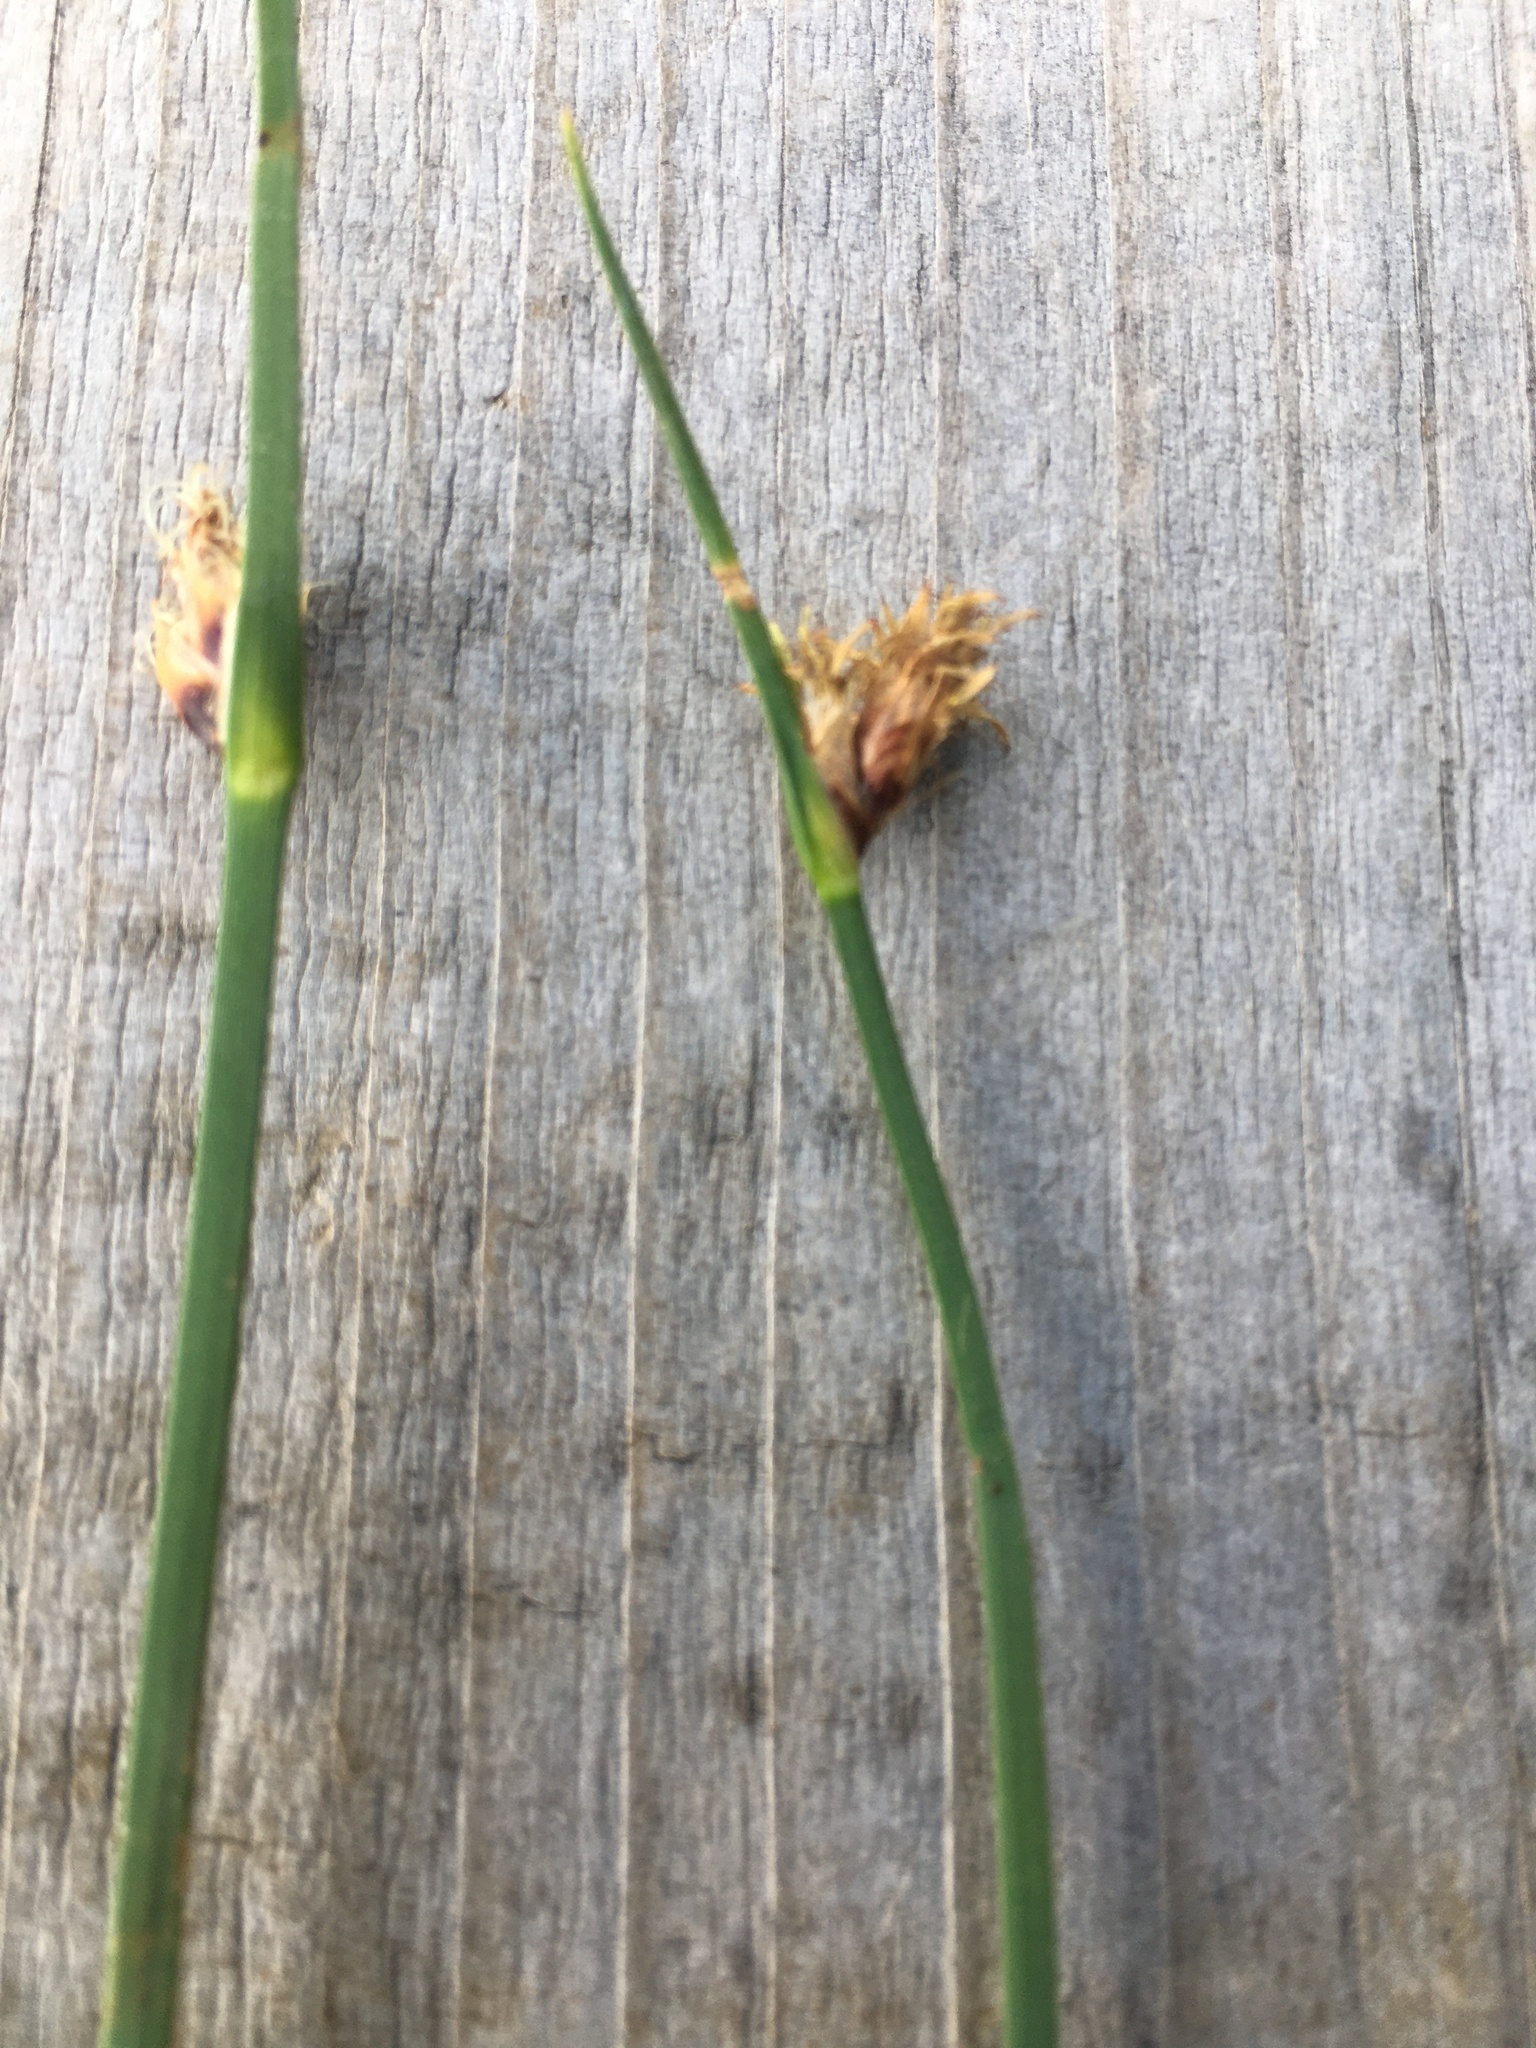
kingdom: Plantae
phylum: Tracheophyta
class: Liliopsida
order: Poales
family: Cyperaceae
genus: Schoenoplectus
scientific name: Schoenoplectus pungens
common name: Sharp club-rush
